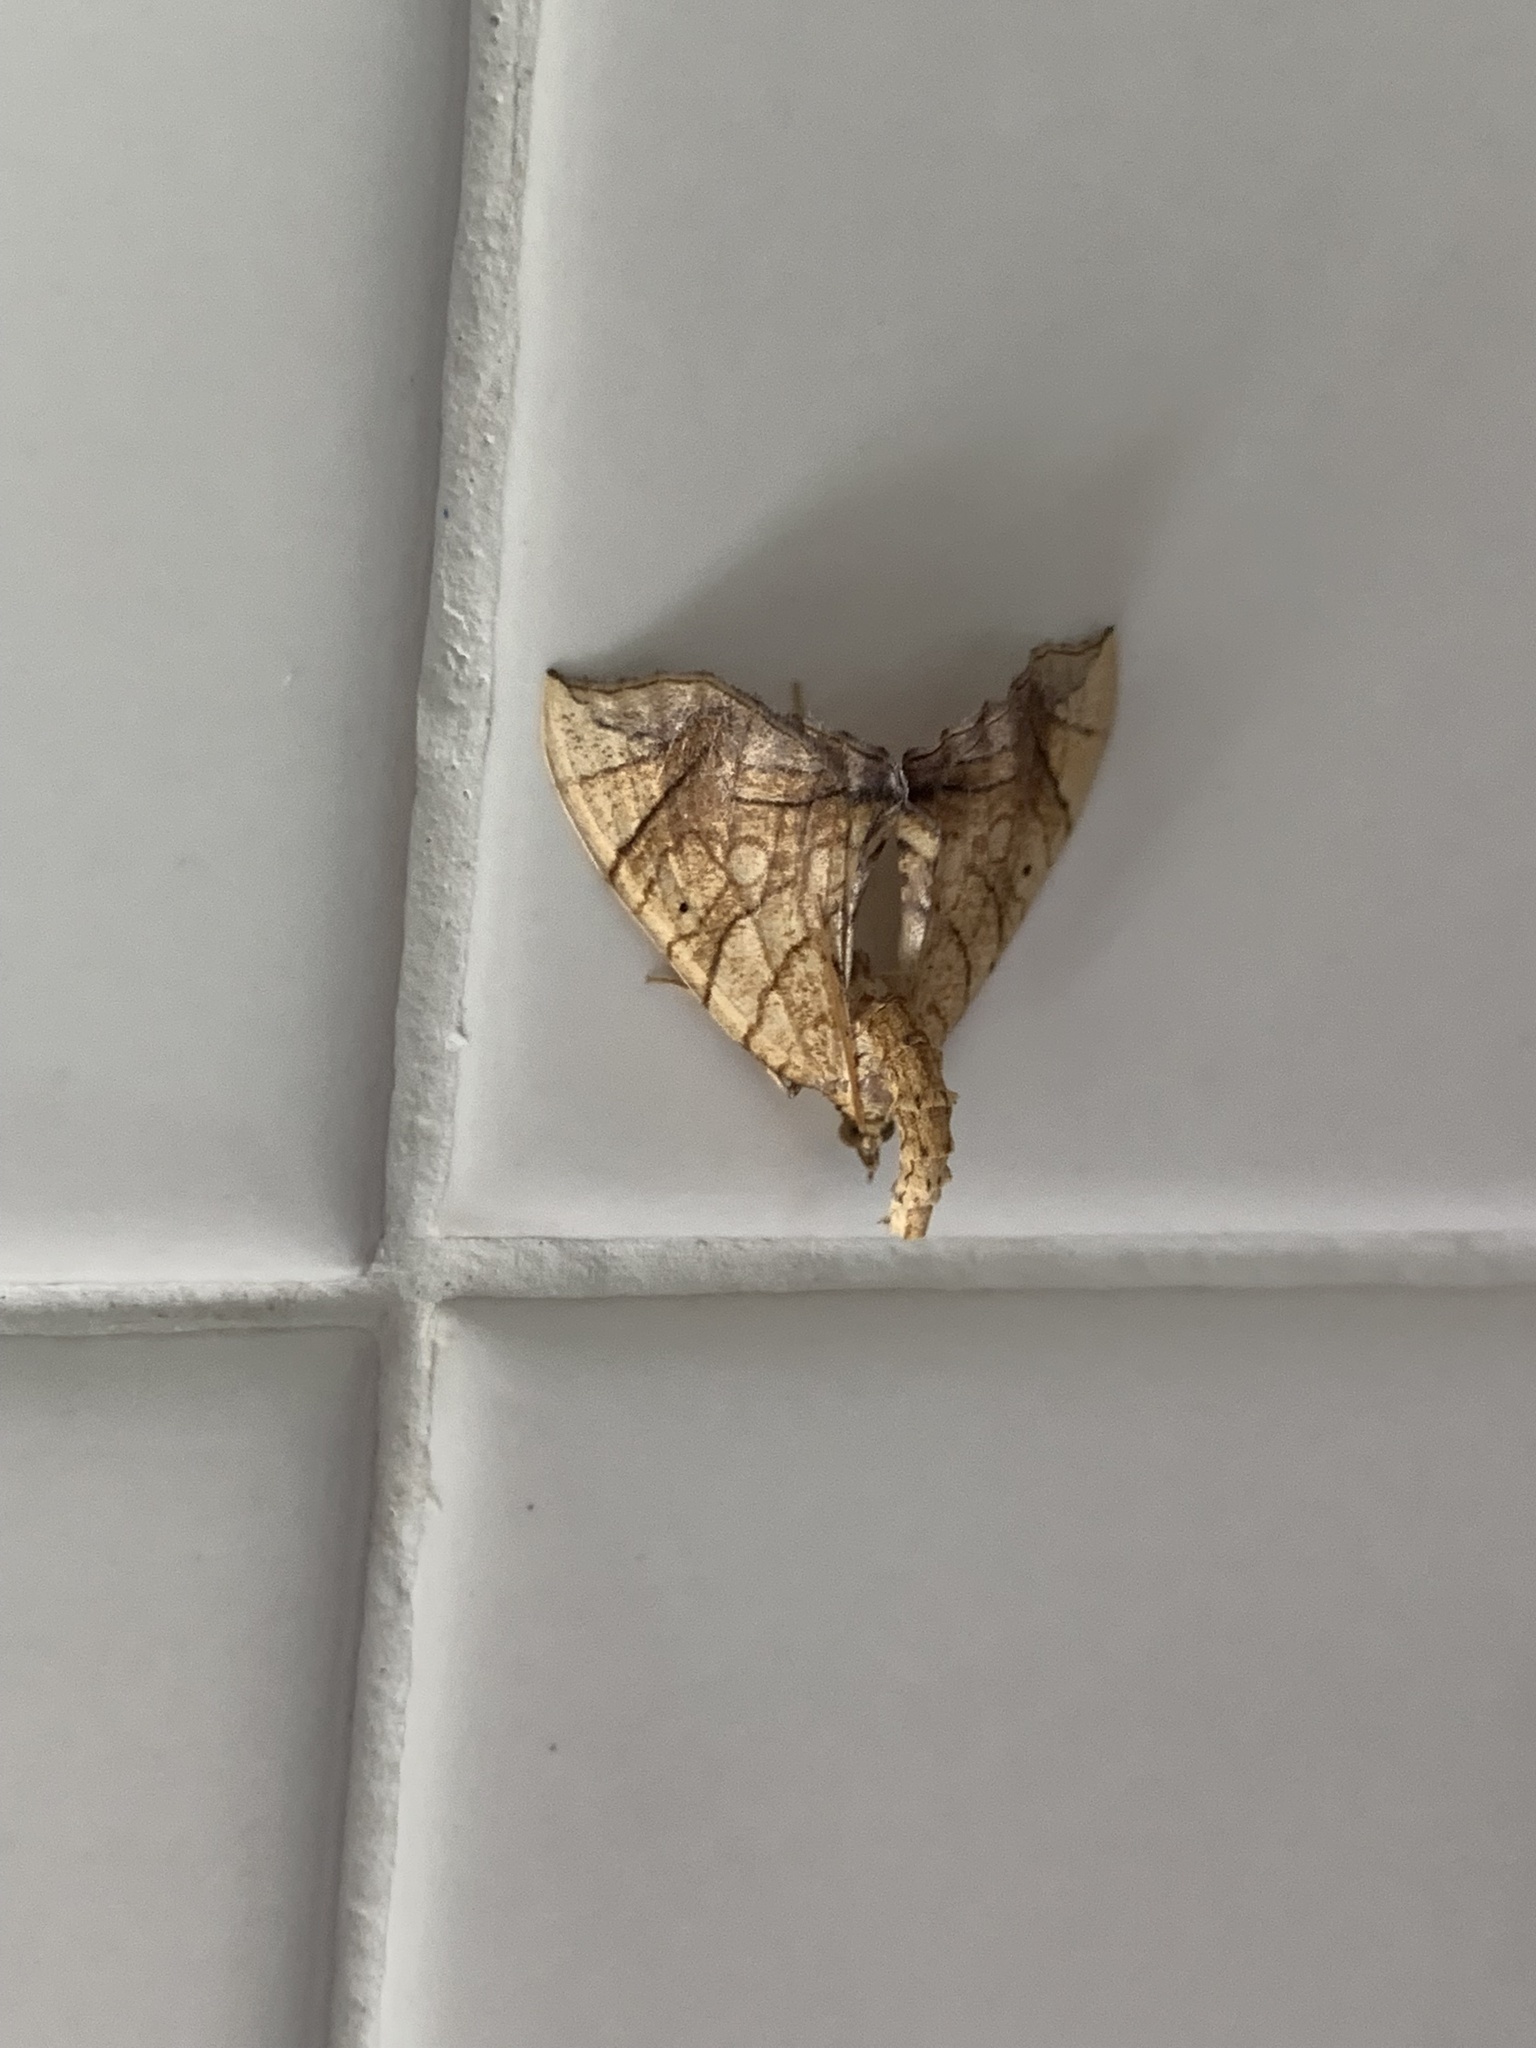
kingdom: Animalia
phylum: Arthropoda
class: Insecta
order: Lepidoptera
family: Geometridae
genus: Eulithis
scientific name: Eulithis gracilineata
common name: Greater grapevine looper moth
